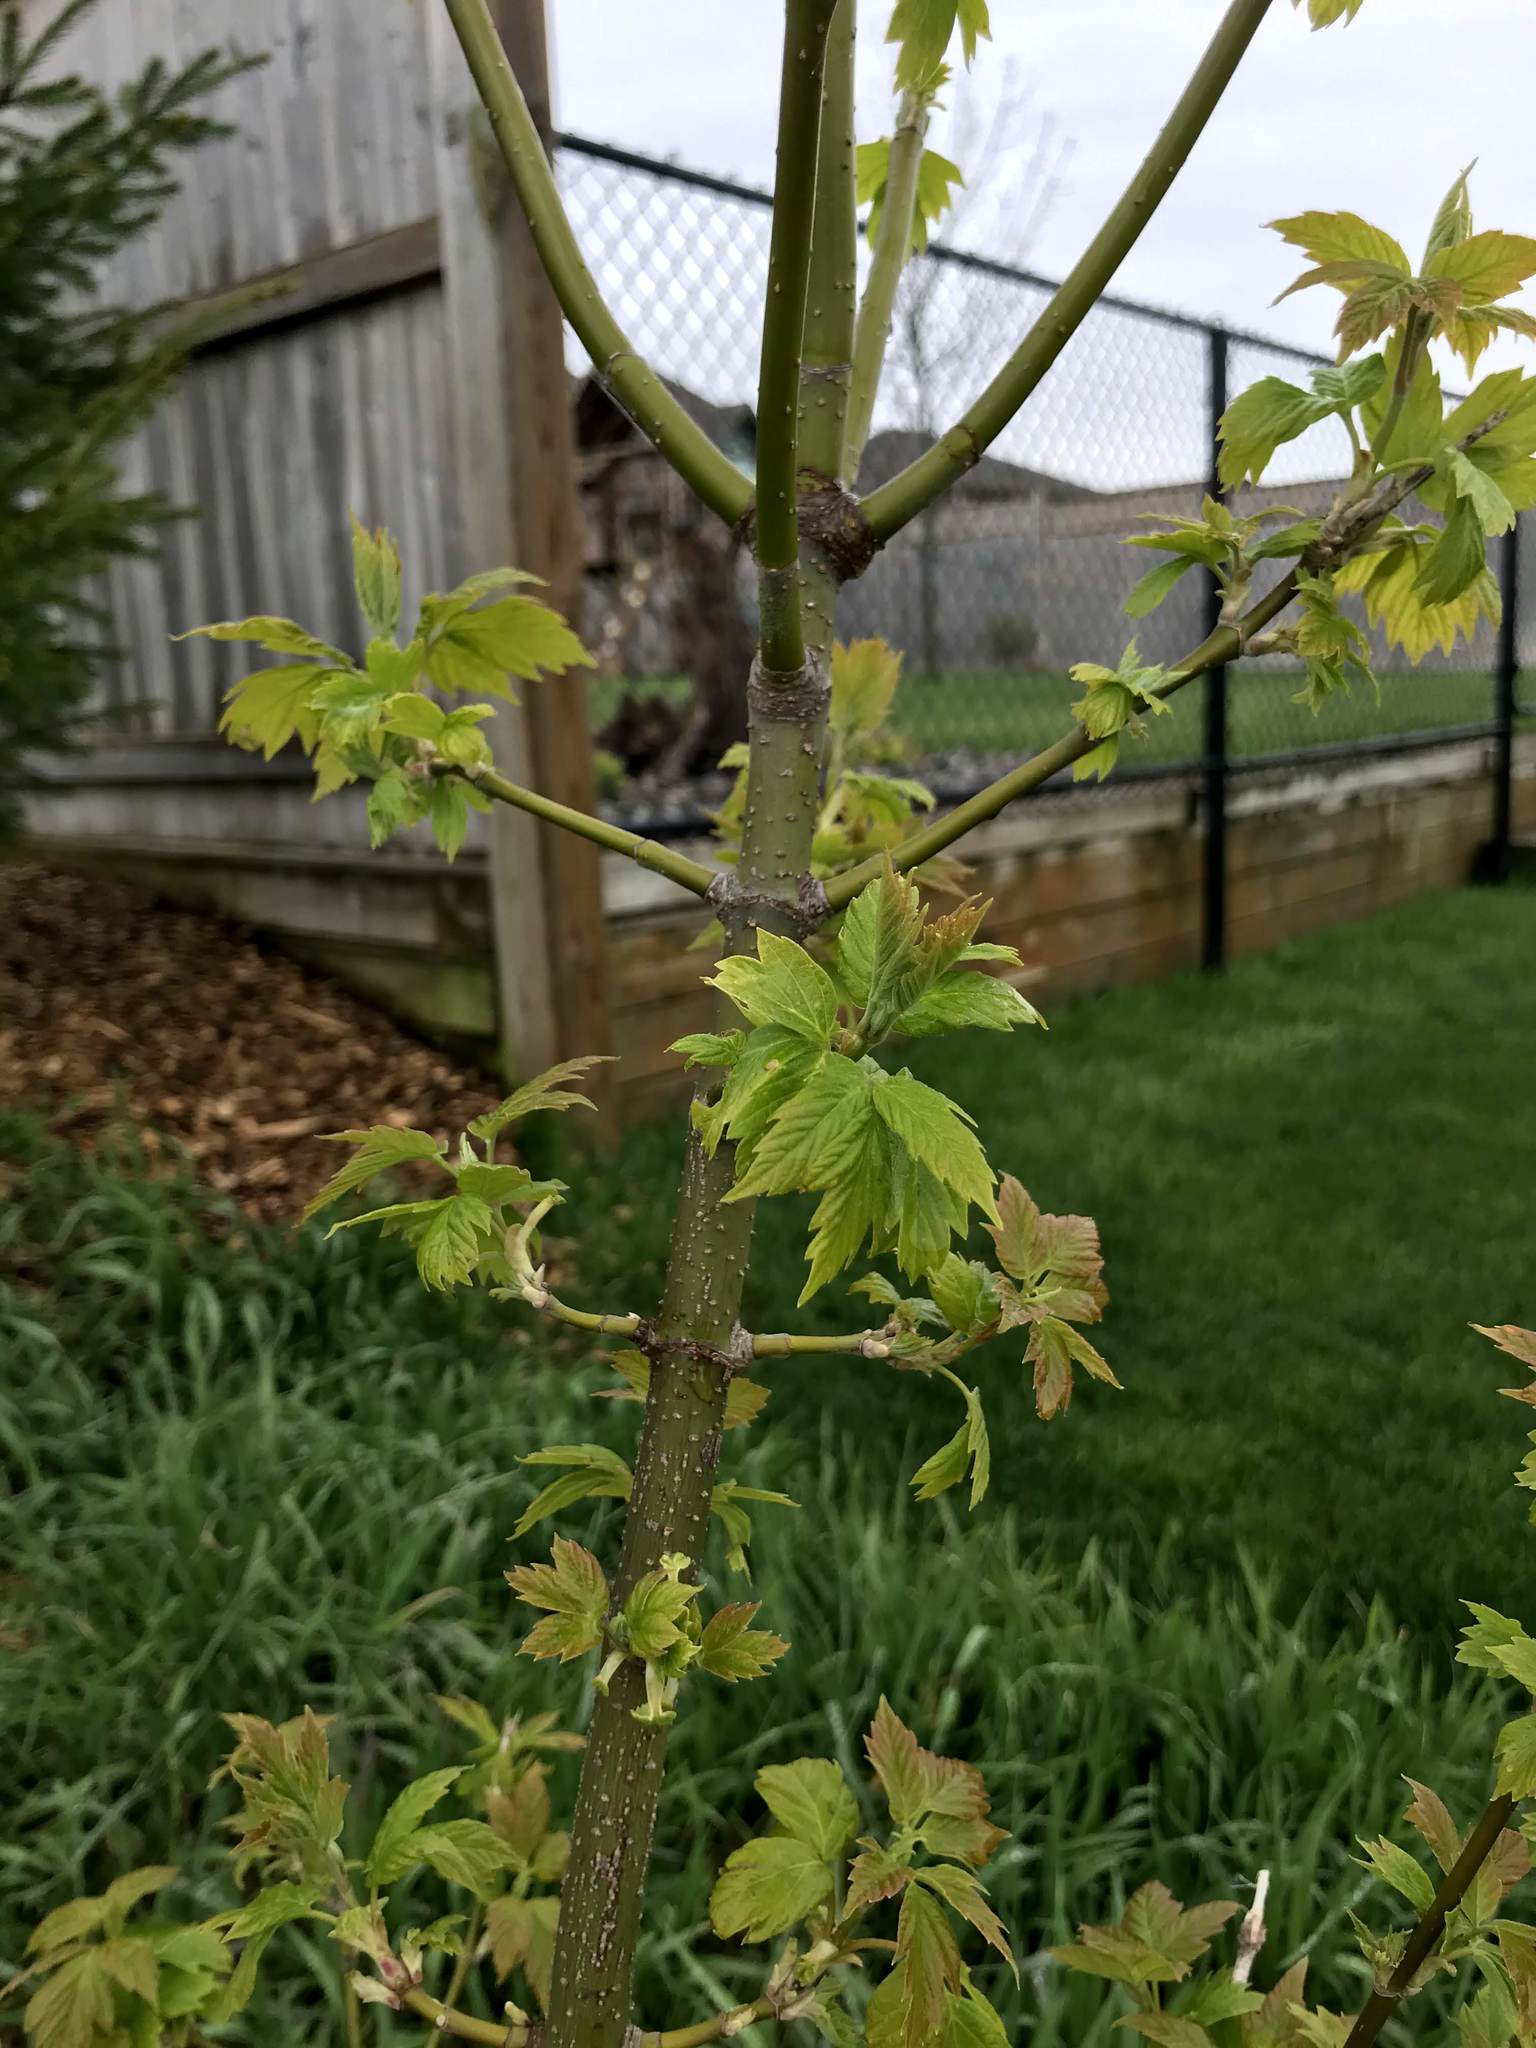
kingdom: Plantae
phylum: Tracheophyta
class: Magnoliopsida
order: Sapindales
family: Sapindaceae
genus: Acer
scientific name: Acer negundo
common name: Ashleaf maple
